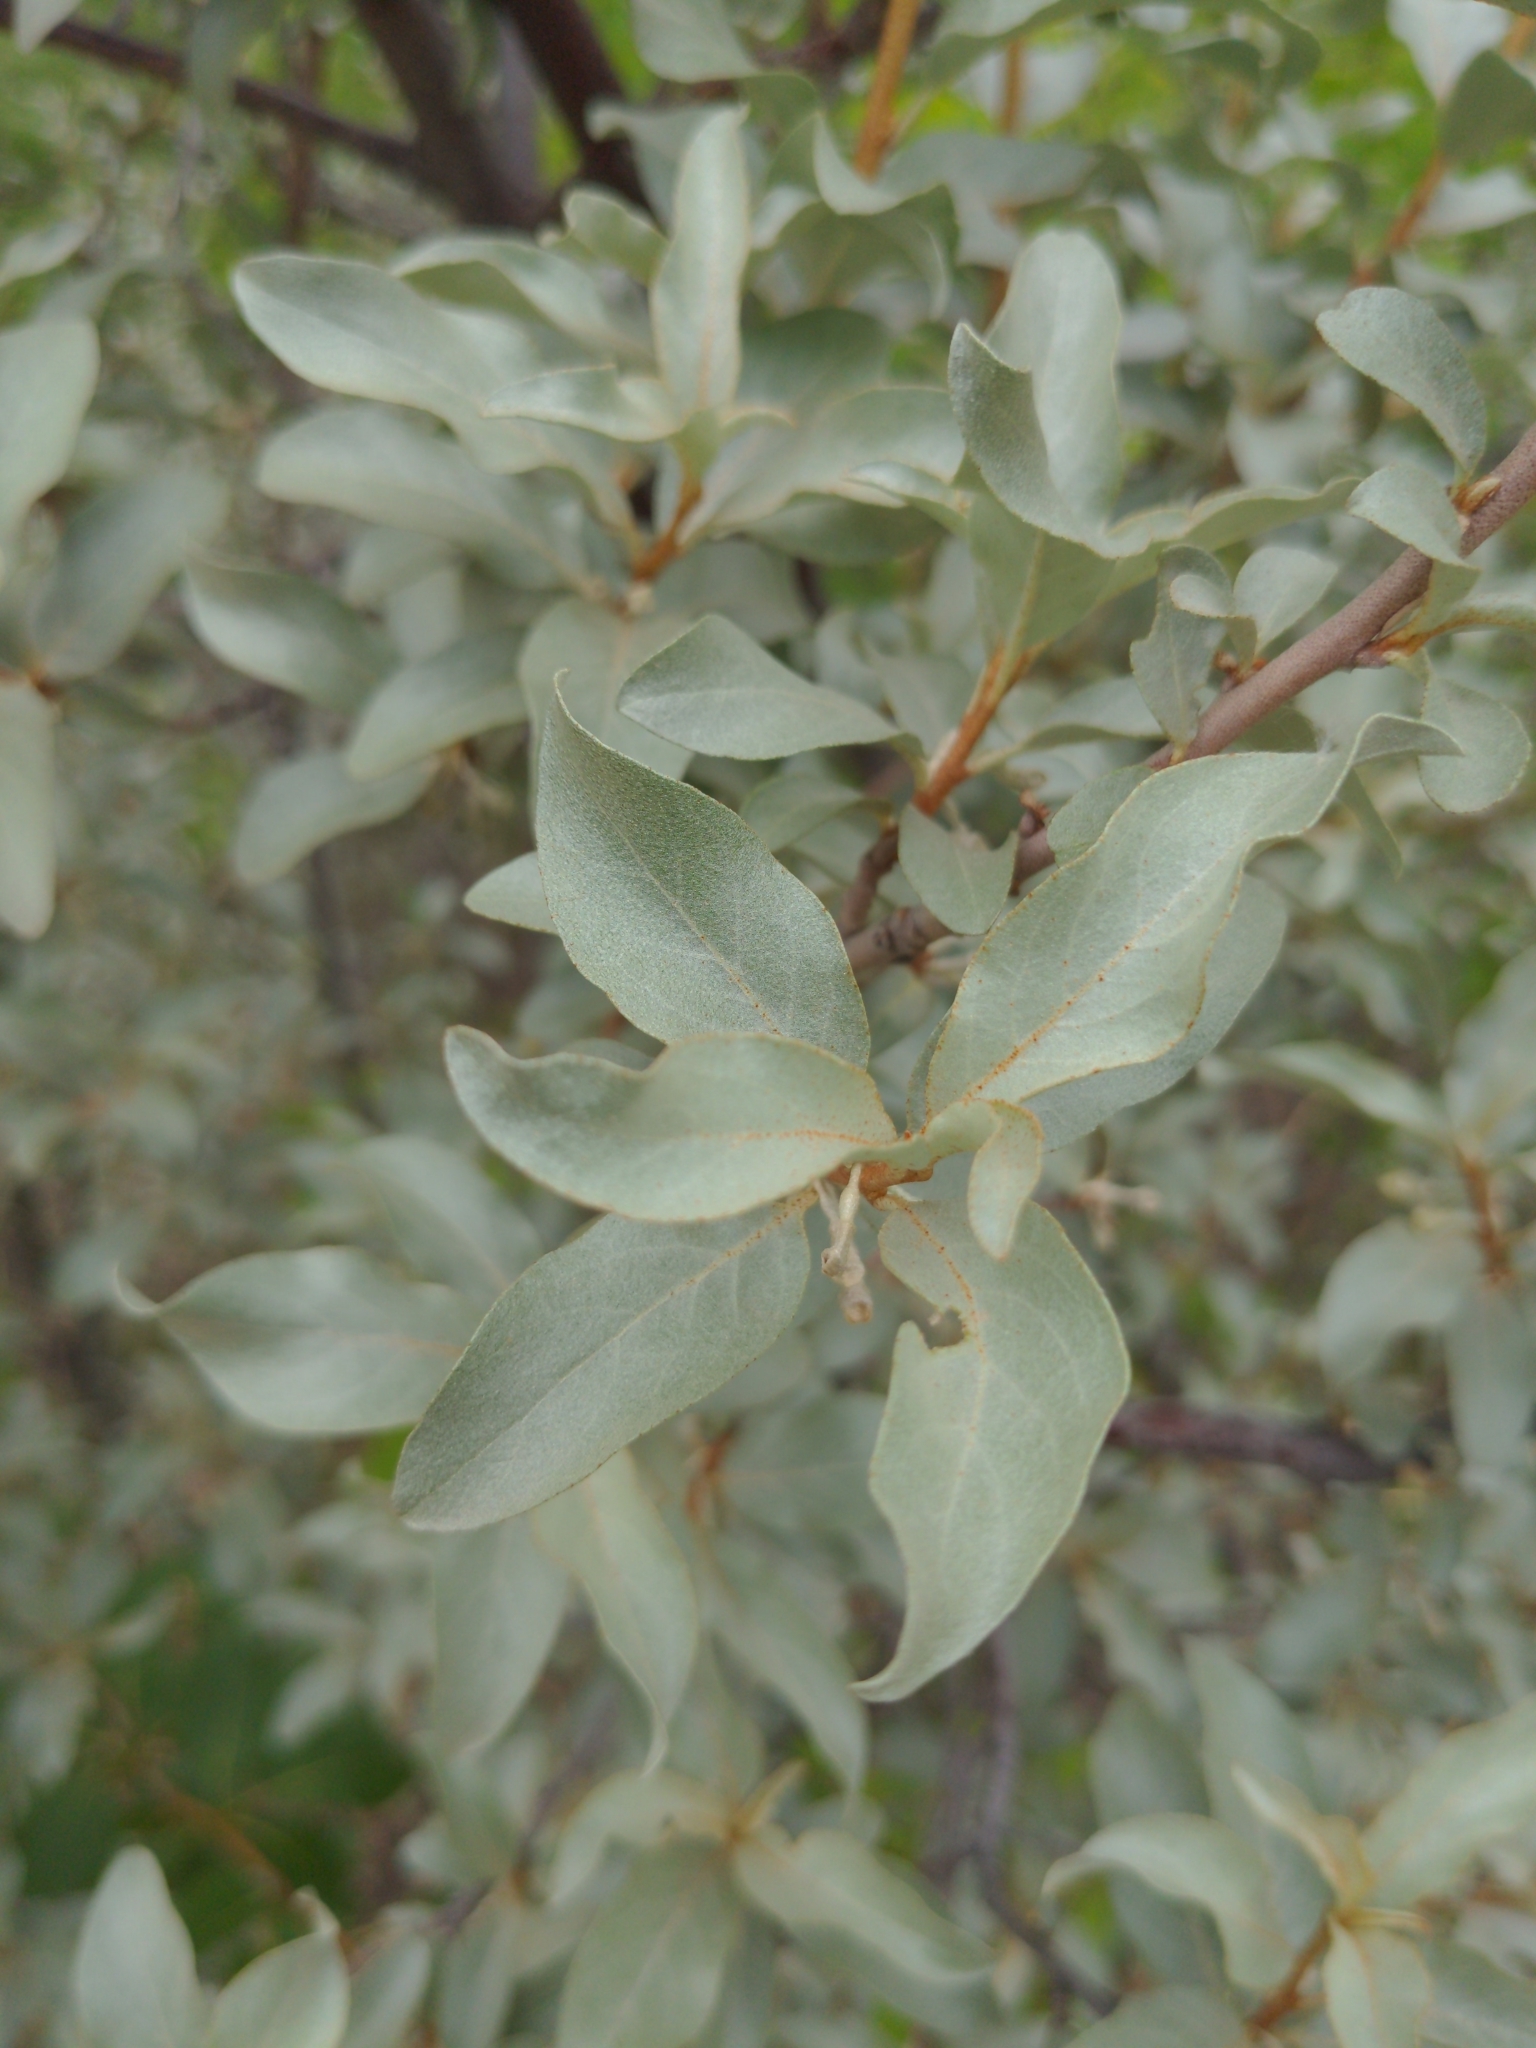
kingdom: Plantae
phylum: Tracheophyta
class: Magnoliopsida
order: Rosales
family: Elaeagnaceae
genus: Elaeagnus
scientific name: Elaeagnus commutata
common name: Silverberry
